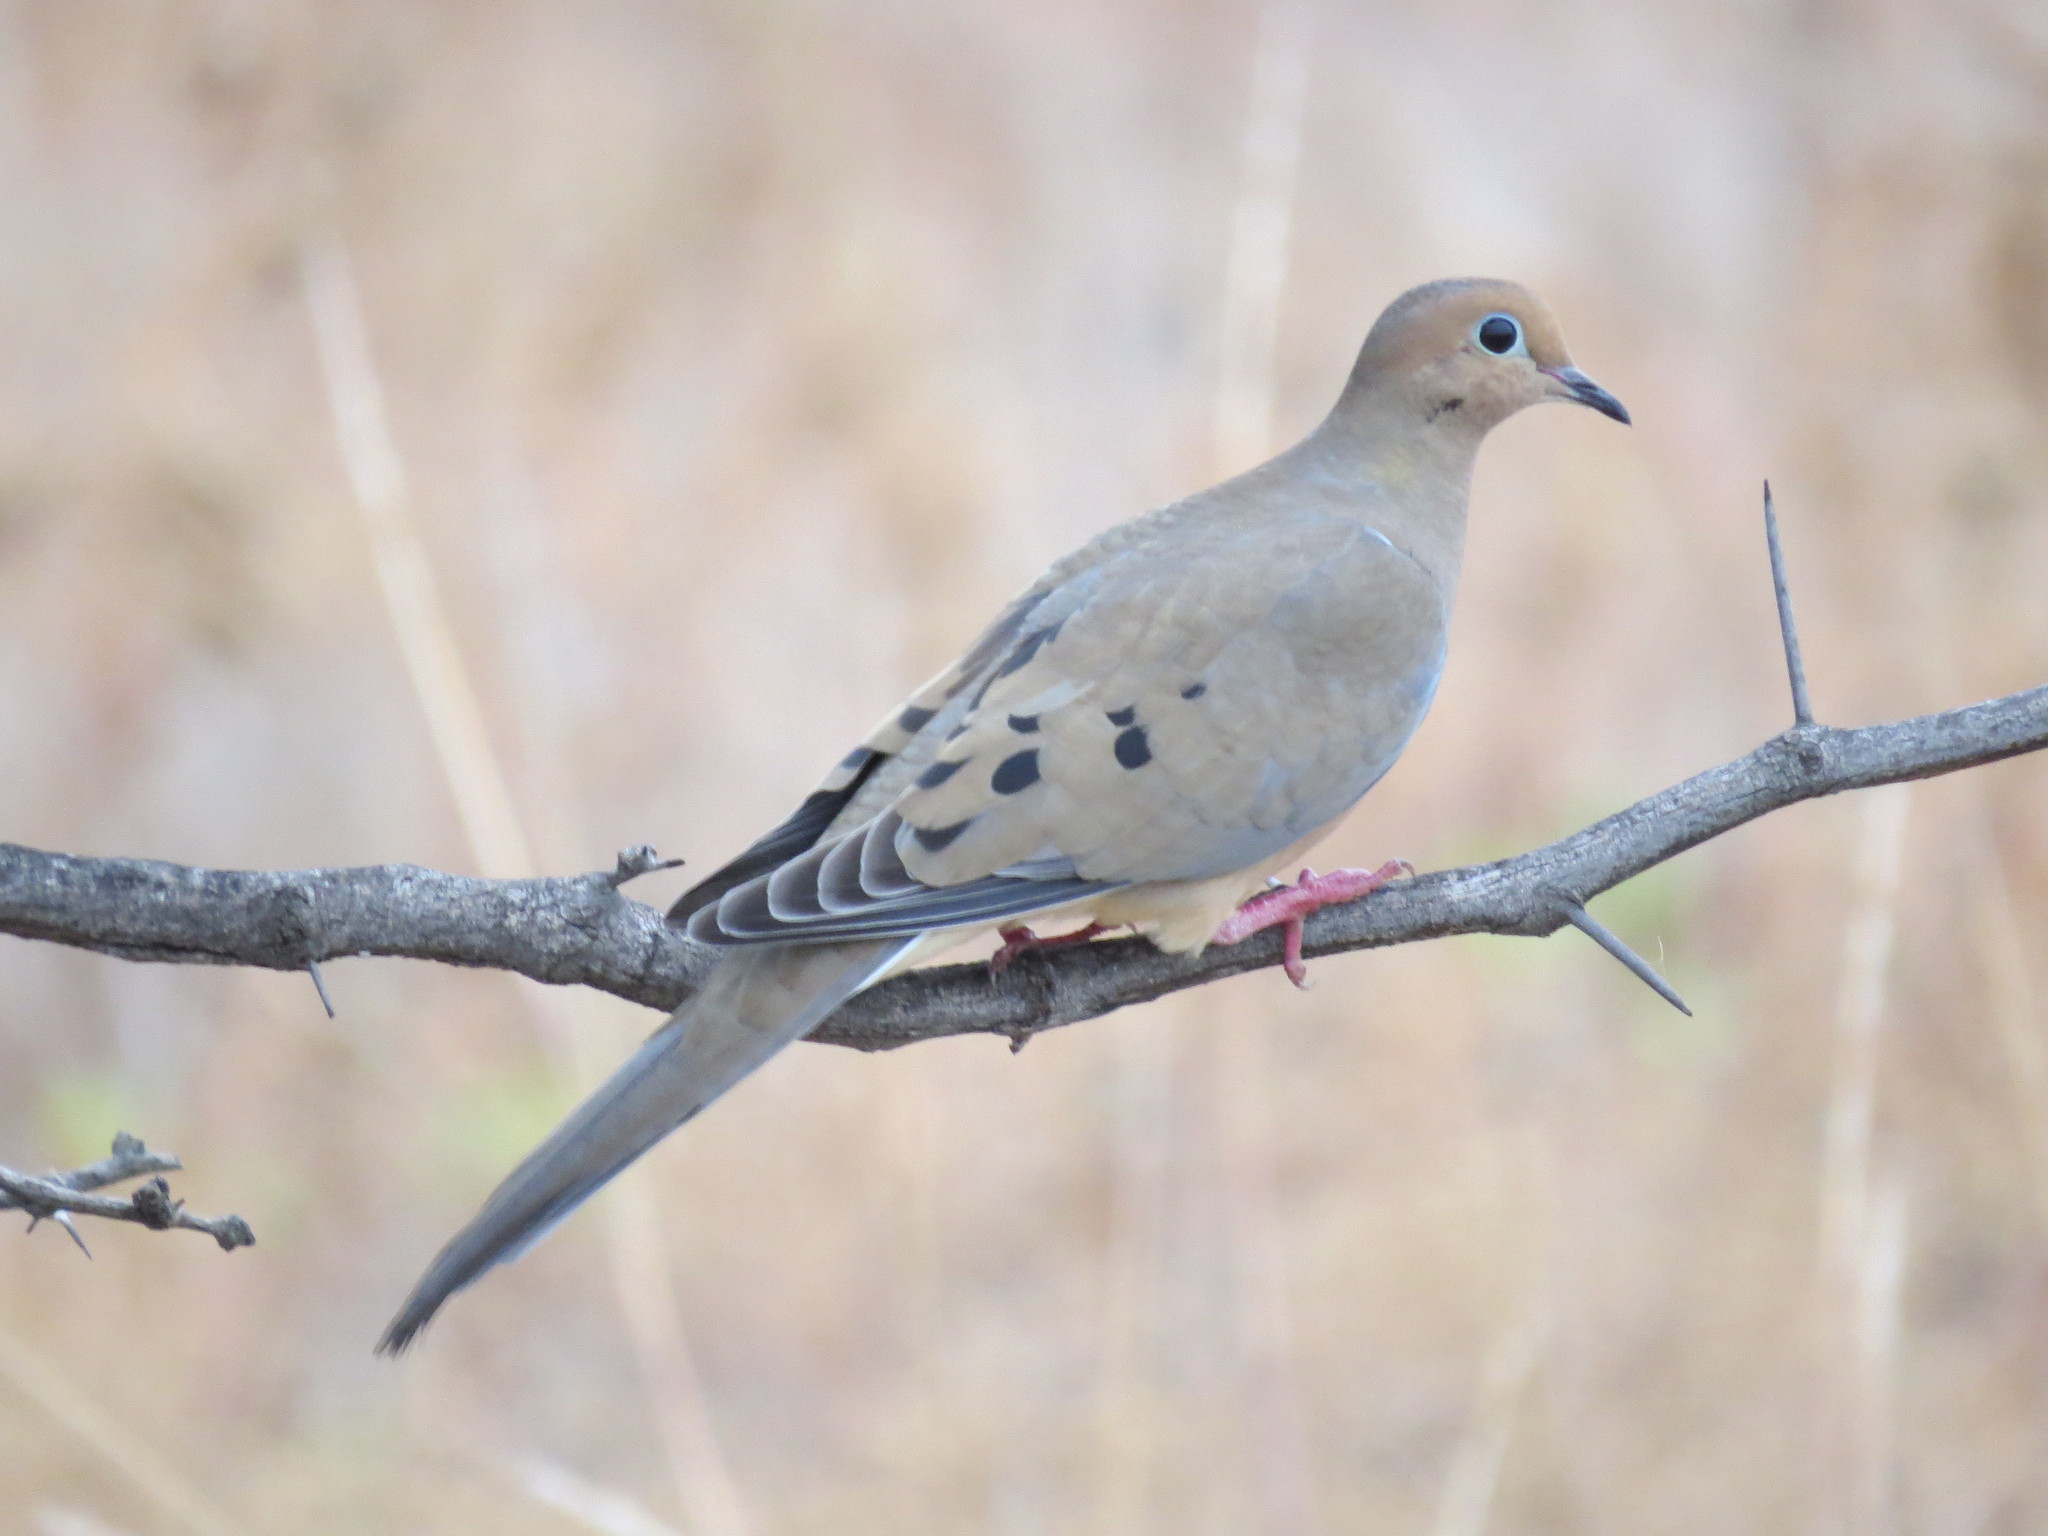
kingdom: Animalia
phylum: Chordata
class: Aves
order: Columbiformes
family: Columbidae
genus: Zenaida
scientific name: Zenaida macroura
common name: Mourning dove
